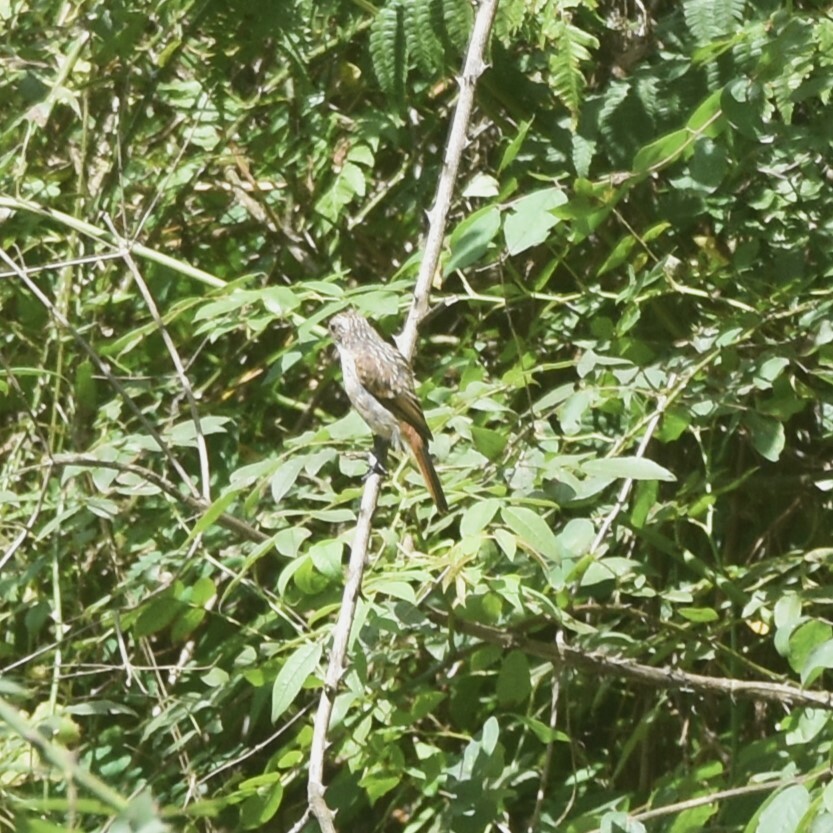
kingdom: Animalia
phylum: Chordata
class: Aves
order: Passeriformes
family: Muscicapidae
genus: Saxicola
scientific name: Saxicola ferreus
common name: Grey bush chat
